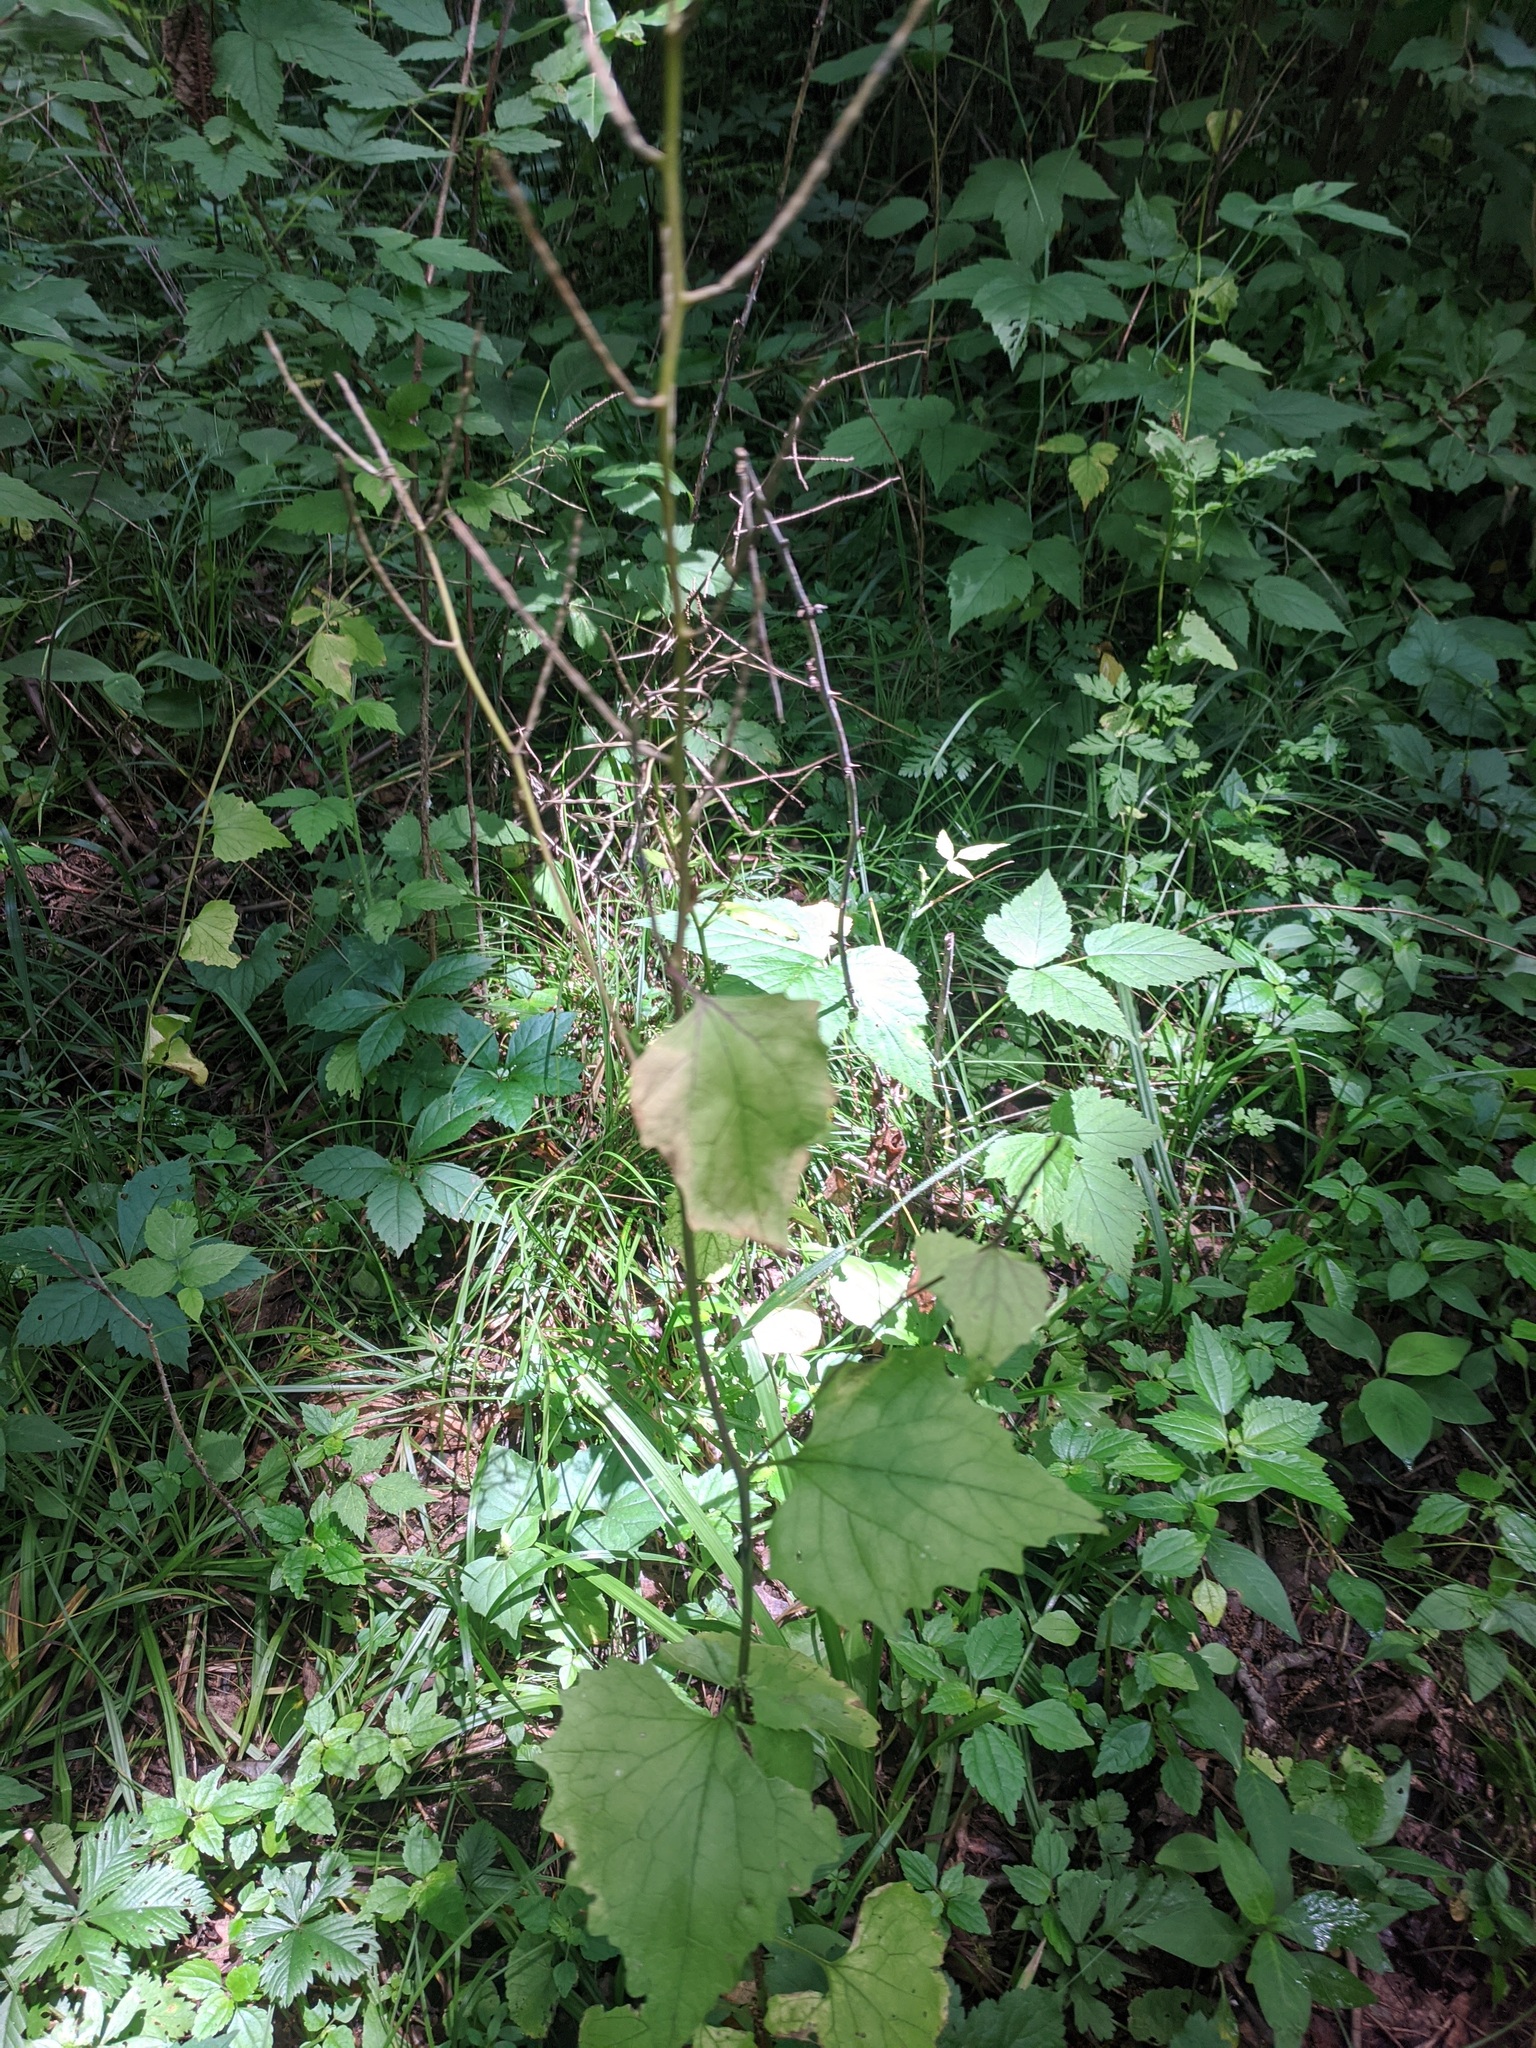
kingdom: Plantae
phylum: Tracheophyta
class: Magnoliopsida
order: Brassicales
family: Brassicaceae
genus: Alliaria
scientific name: Alliaria petiolata
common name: Garlic mustard
